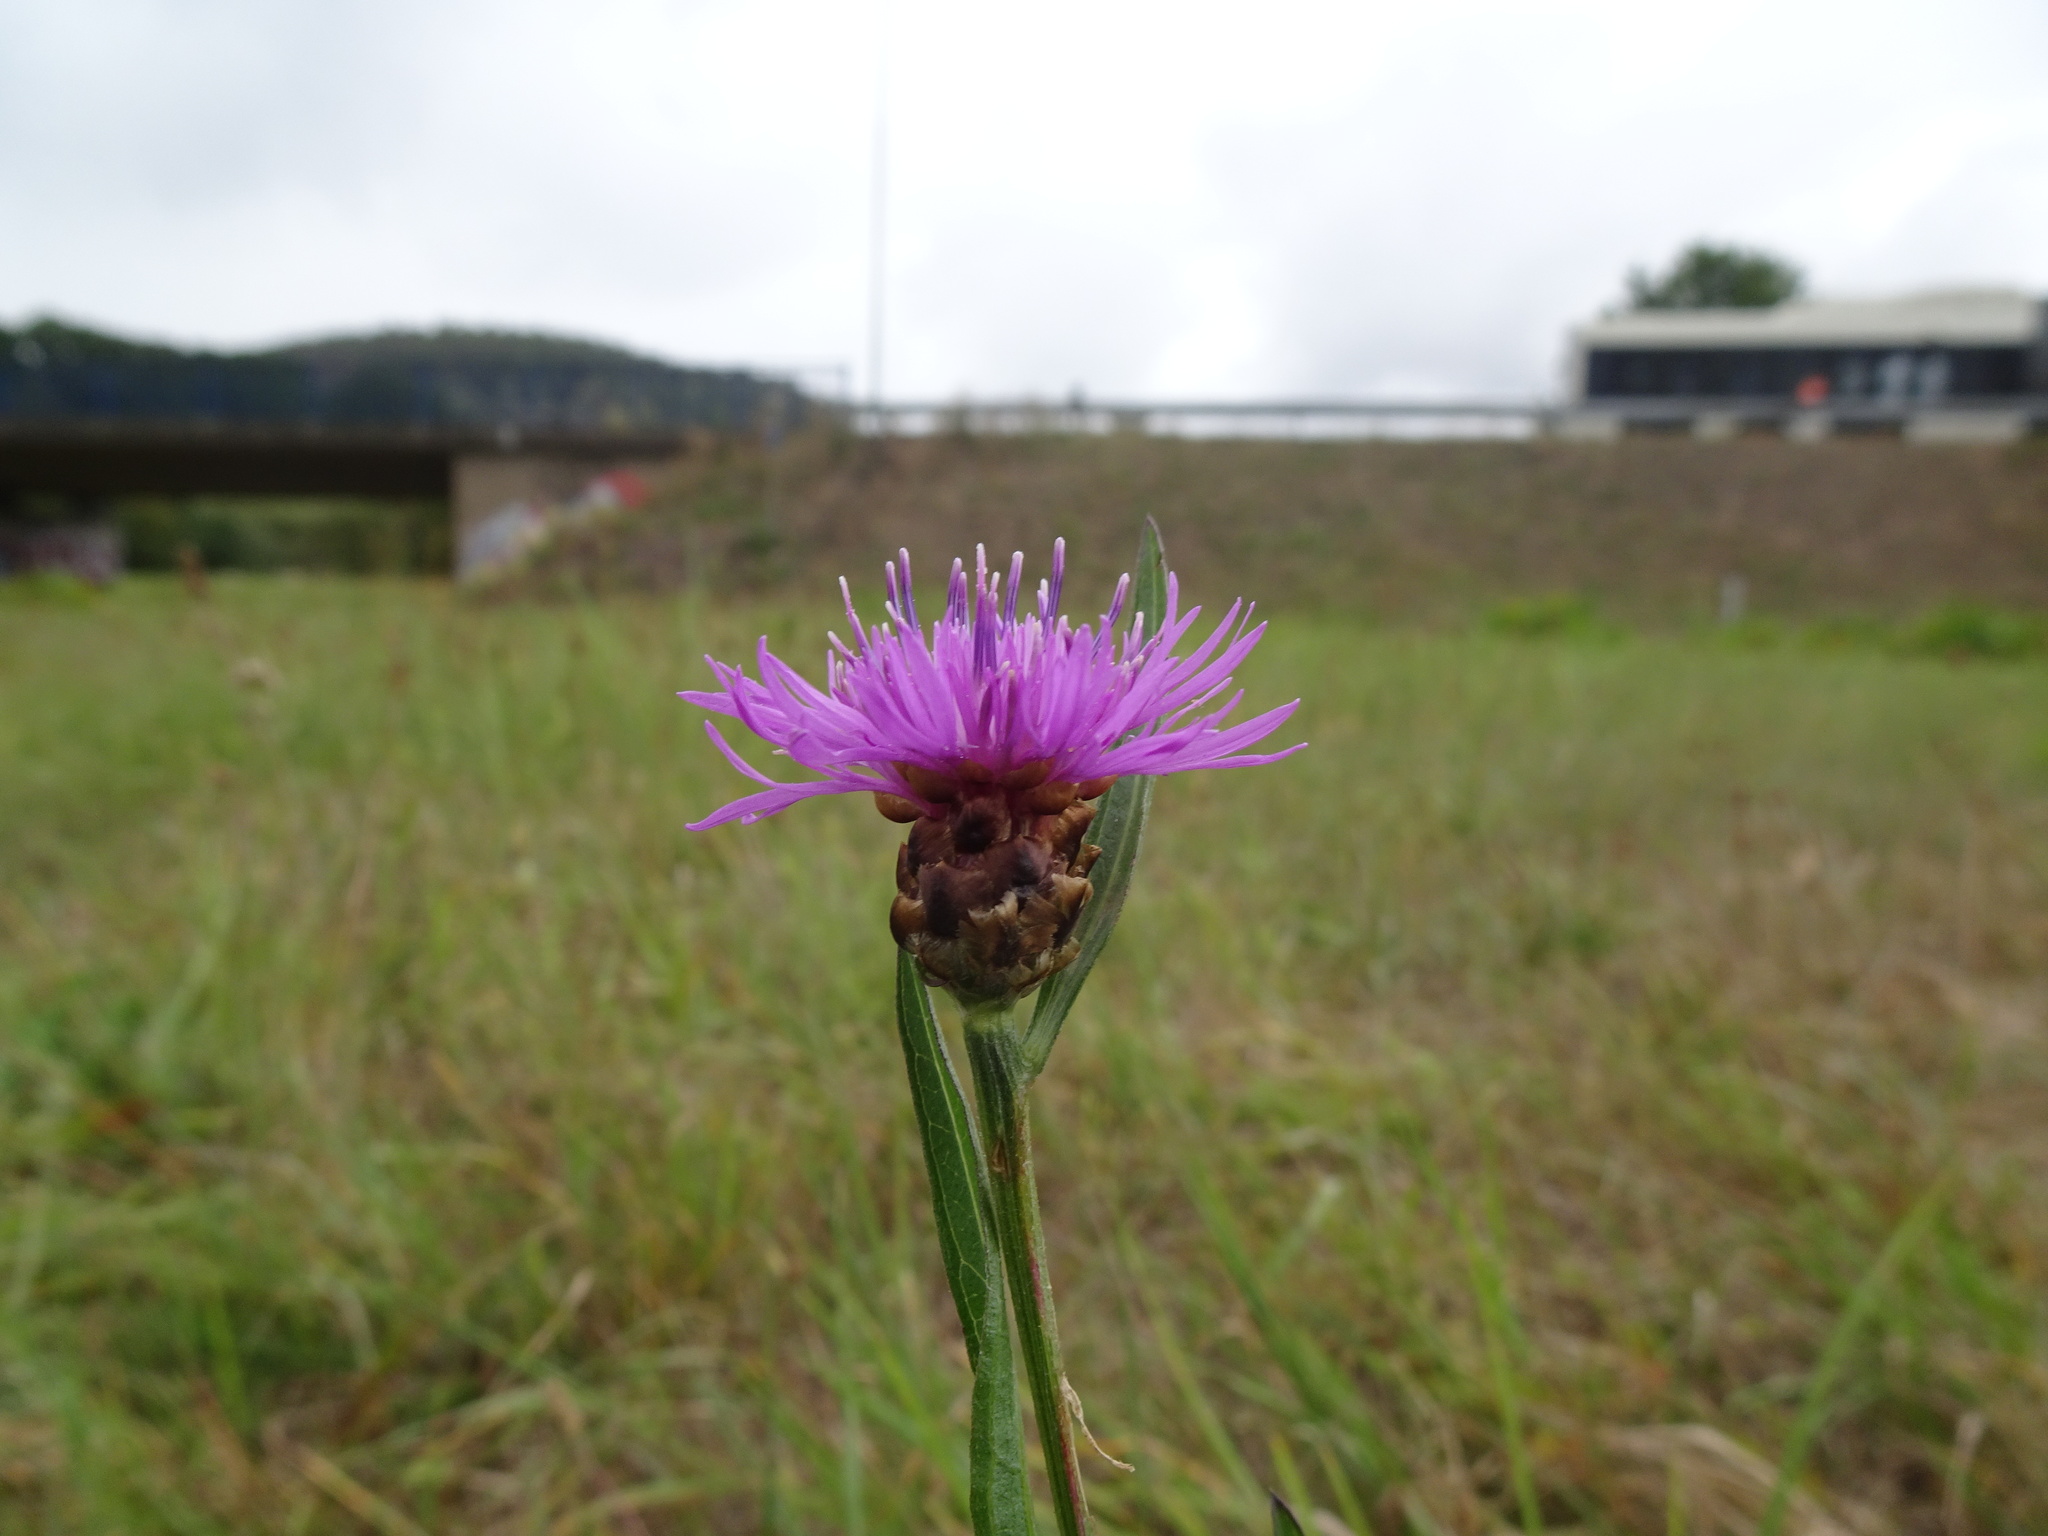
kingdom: Plantae
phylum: Tracheophyta
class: Magnoliopsida
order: Asterales
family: Asteraceae
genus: Centaurea
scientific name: Centaurea jacea
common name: Brown knapweed
